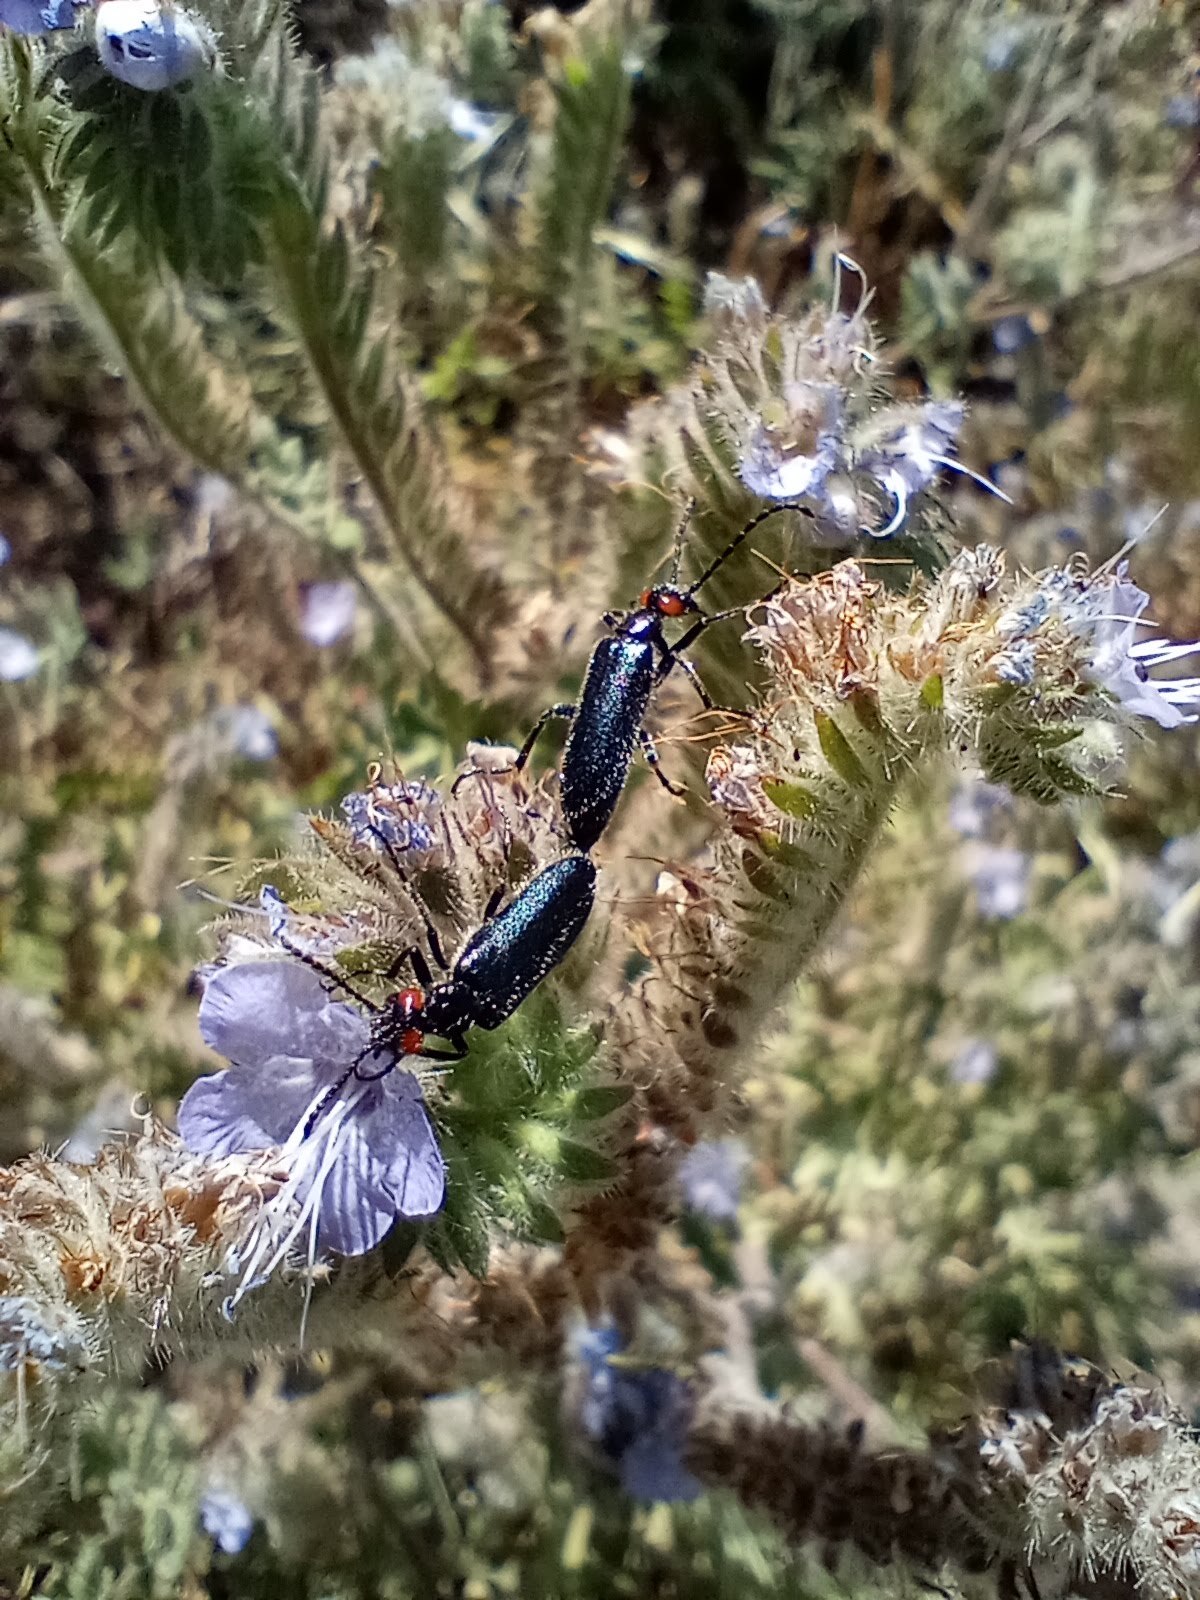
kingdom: Animalia
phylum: Arthropoda
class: Insecta
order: Coleoptera
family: Meloidae
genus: Lytta
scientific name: Lytta auriculata
